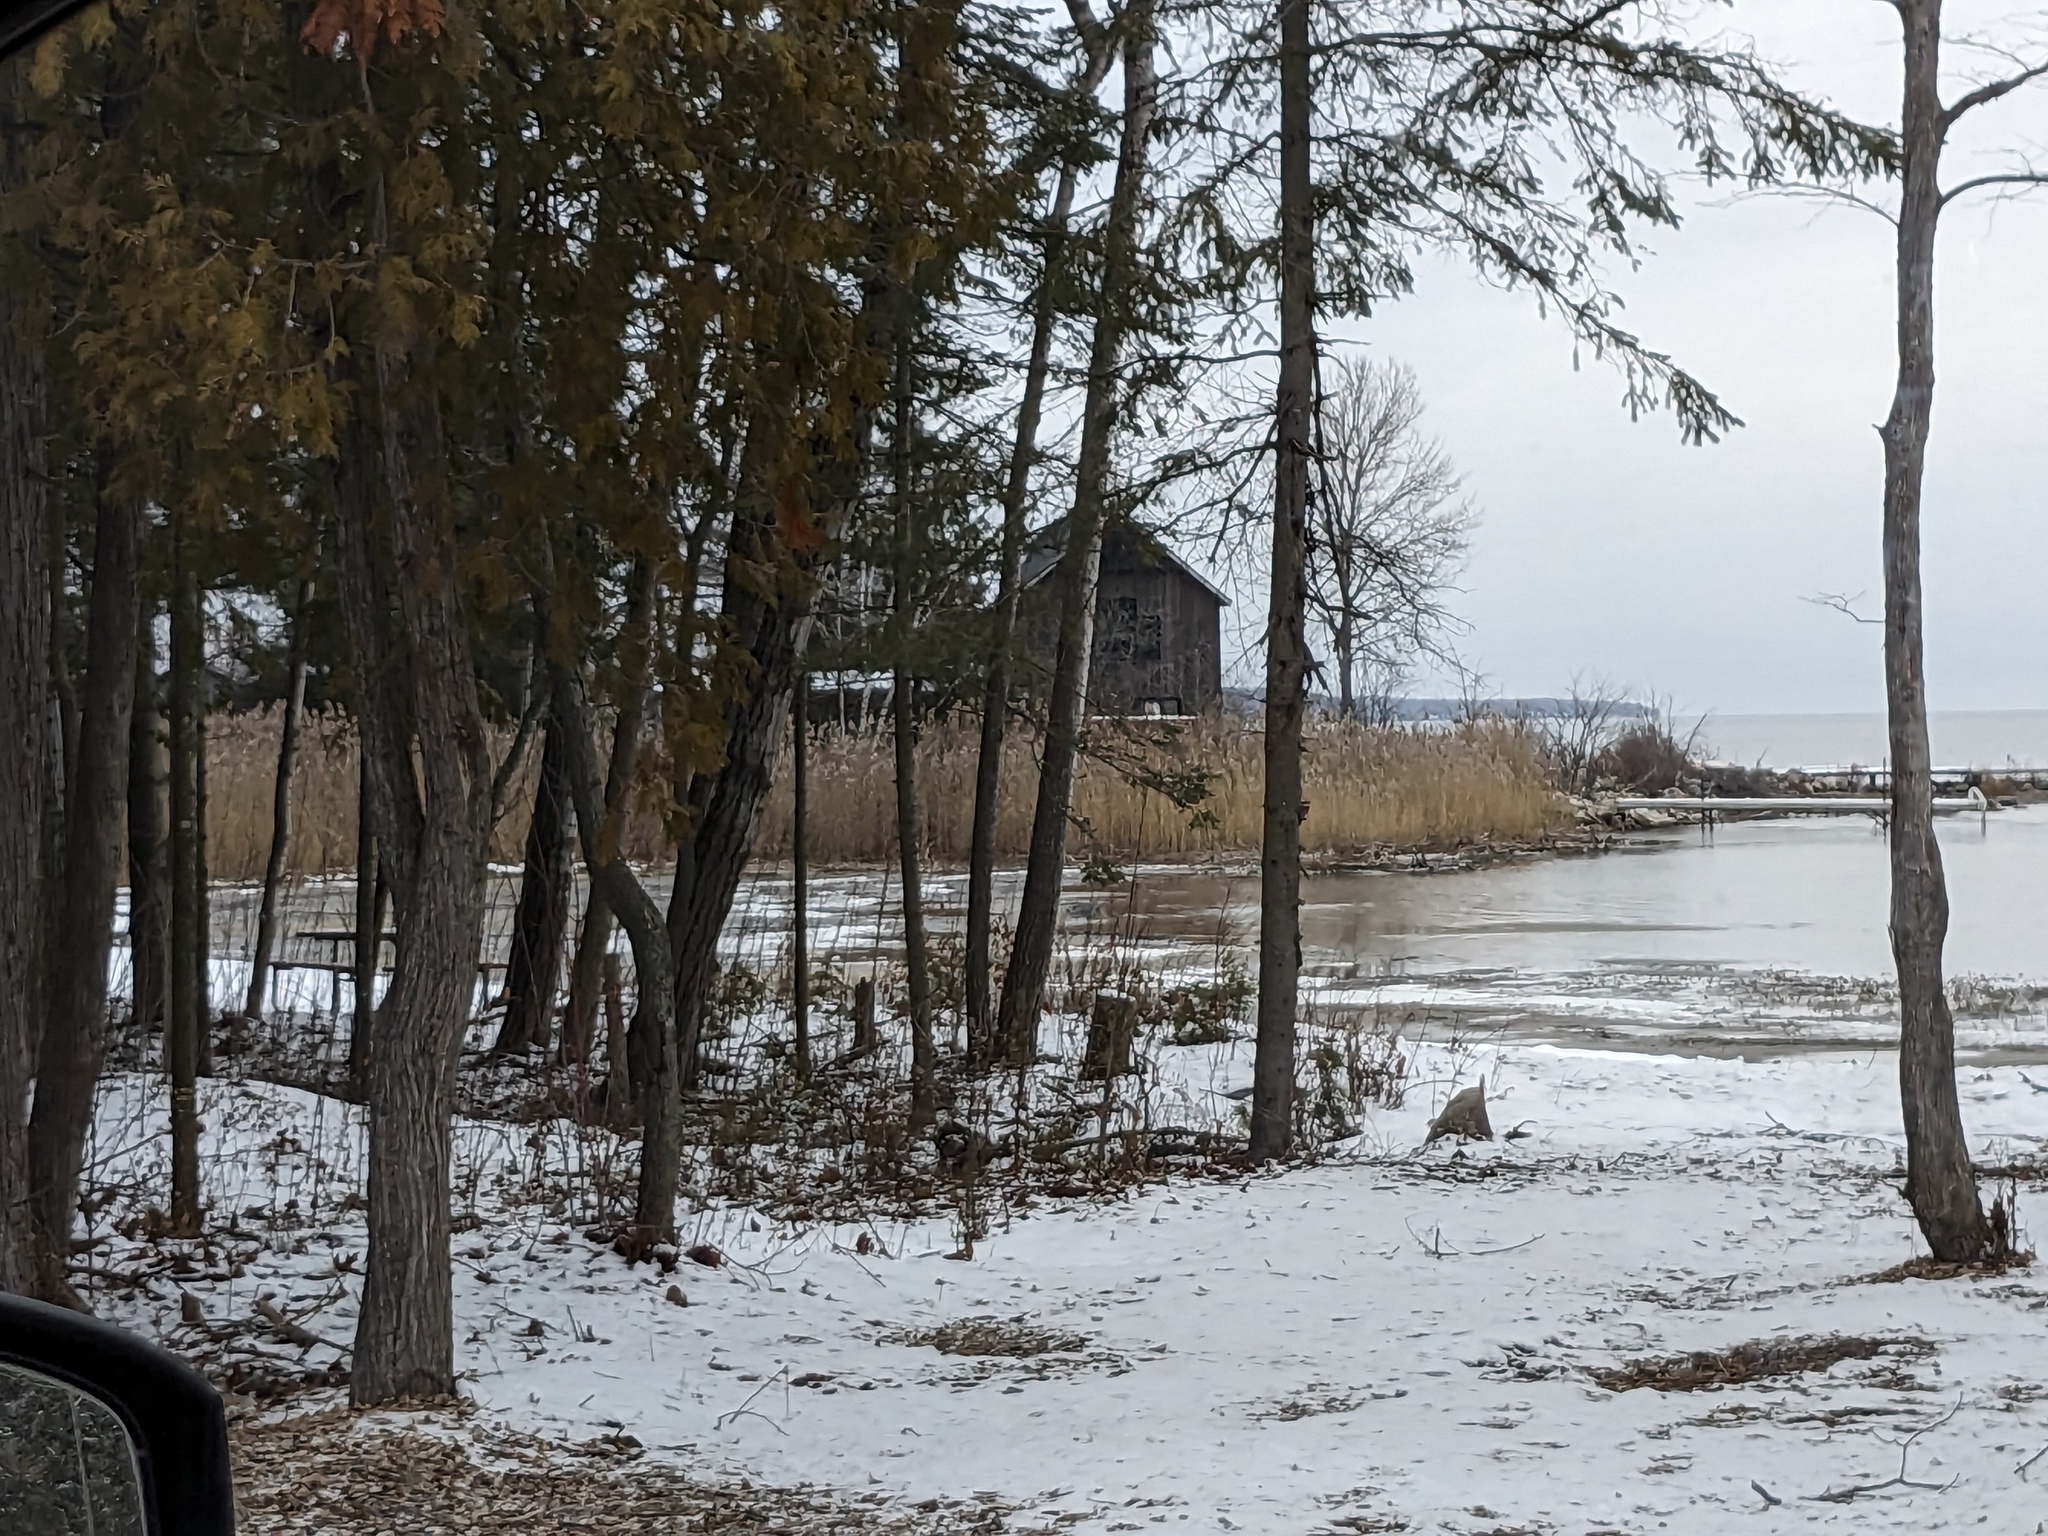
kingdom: Plantae
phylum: Tracheophyta
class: Liliopsida
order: Poales
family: Poaceae
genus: Phragmites
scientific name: Phragmites australis
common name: Common reed
